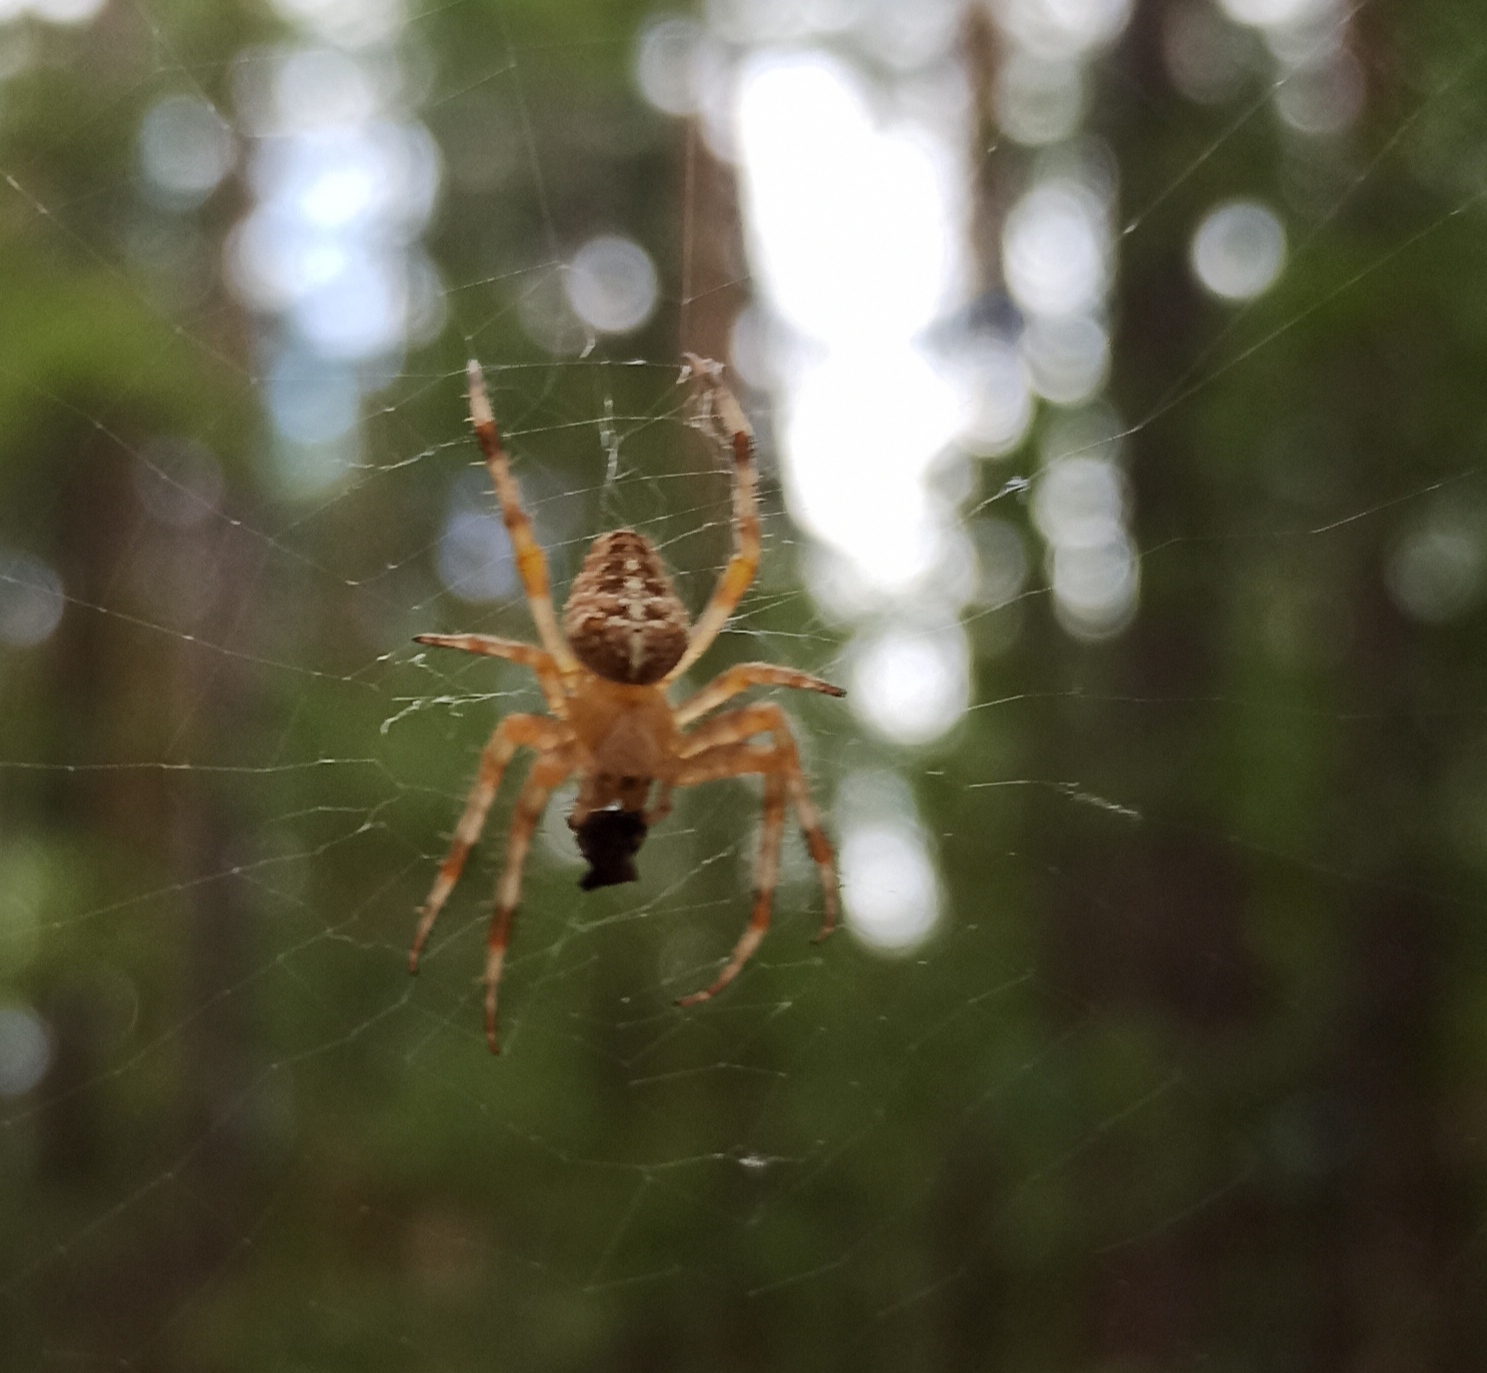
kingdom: Animalia
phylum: Arthropoda
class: Arachnida
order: Araneae
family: Araneidae
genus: Araneus
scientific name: Araneus diadematus
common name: Cross orbweaver
